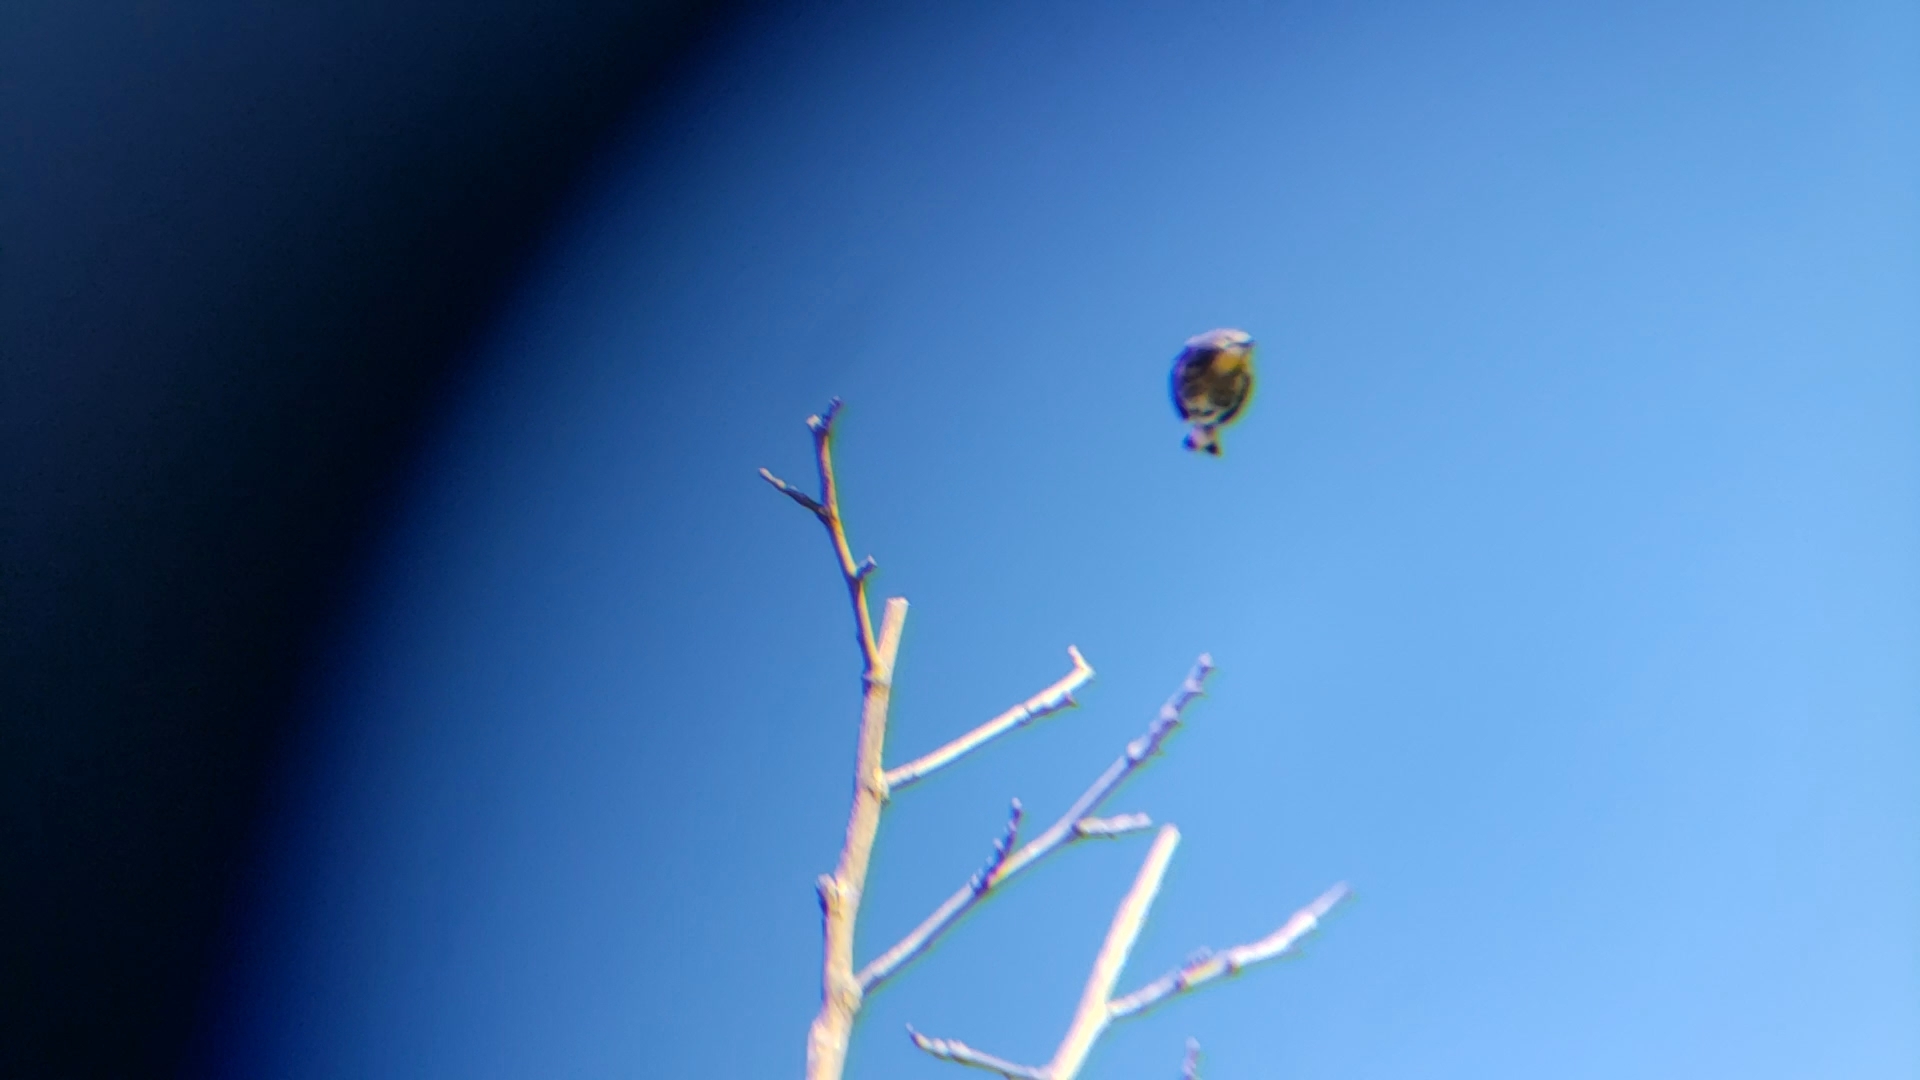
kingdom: Animalia
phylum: Chordata
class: Aves
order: Passeriformes
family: Parulidae
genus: Setophaga
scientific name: Setophaga auduboni
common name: Audubon's warbler
